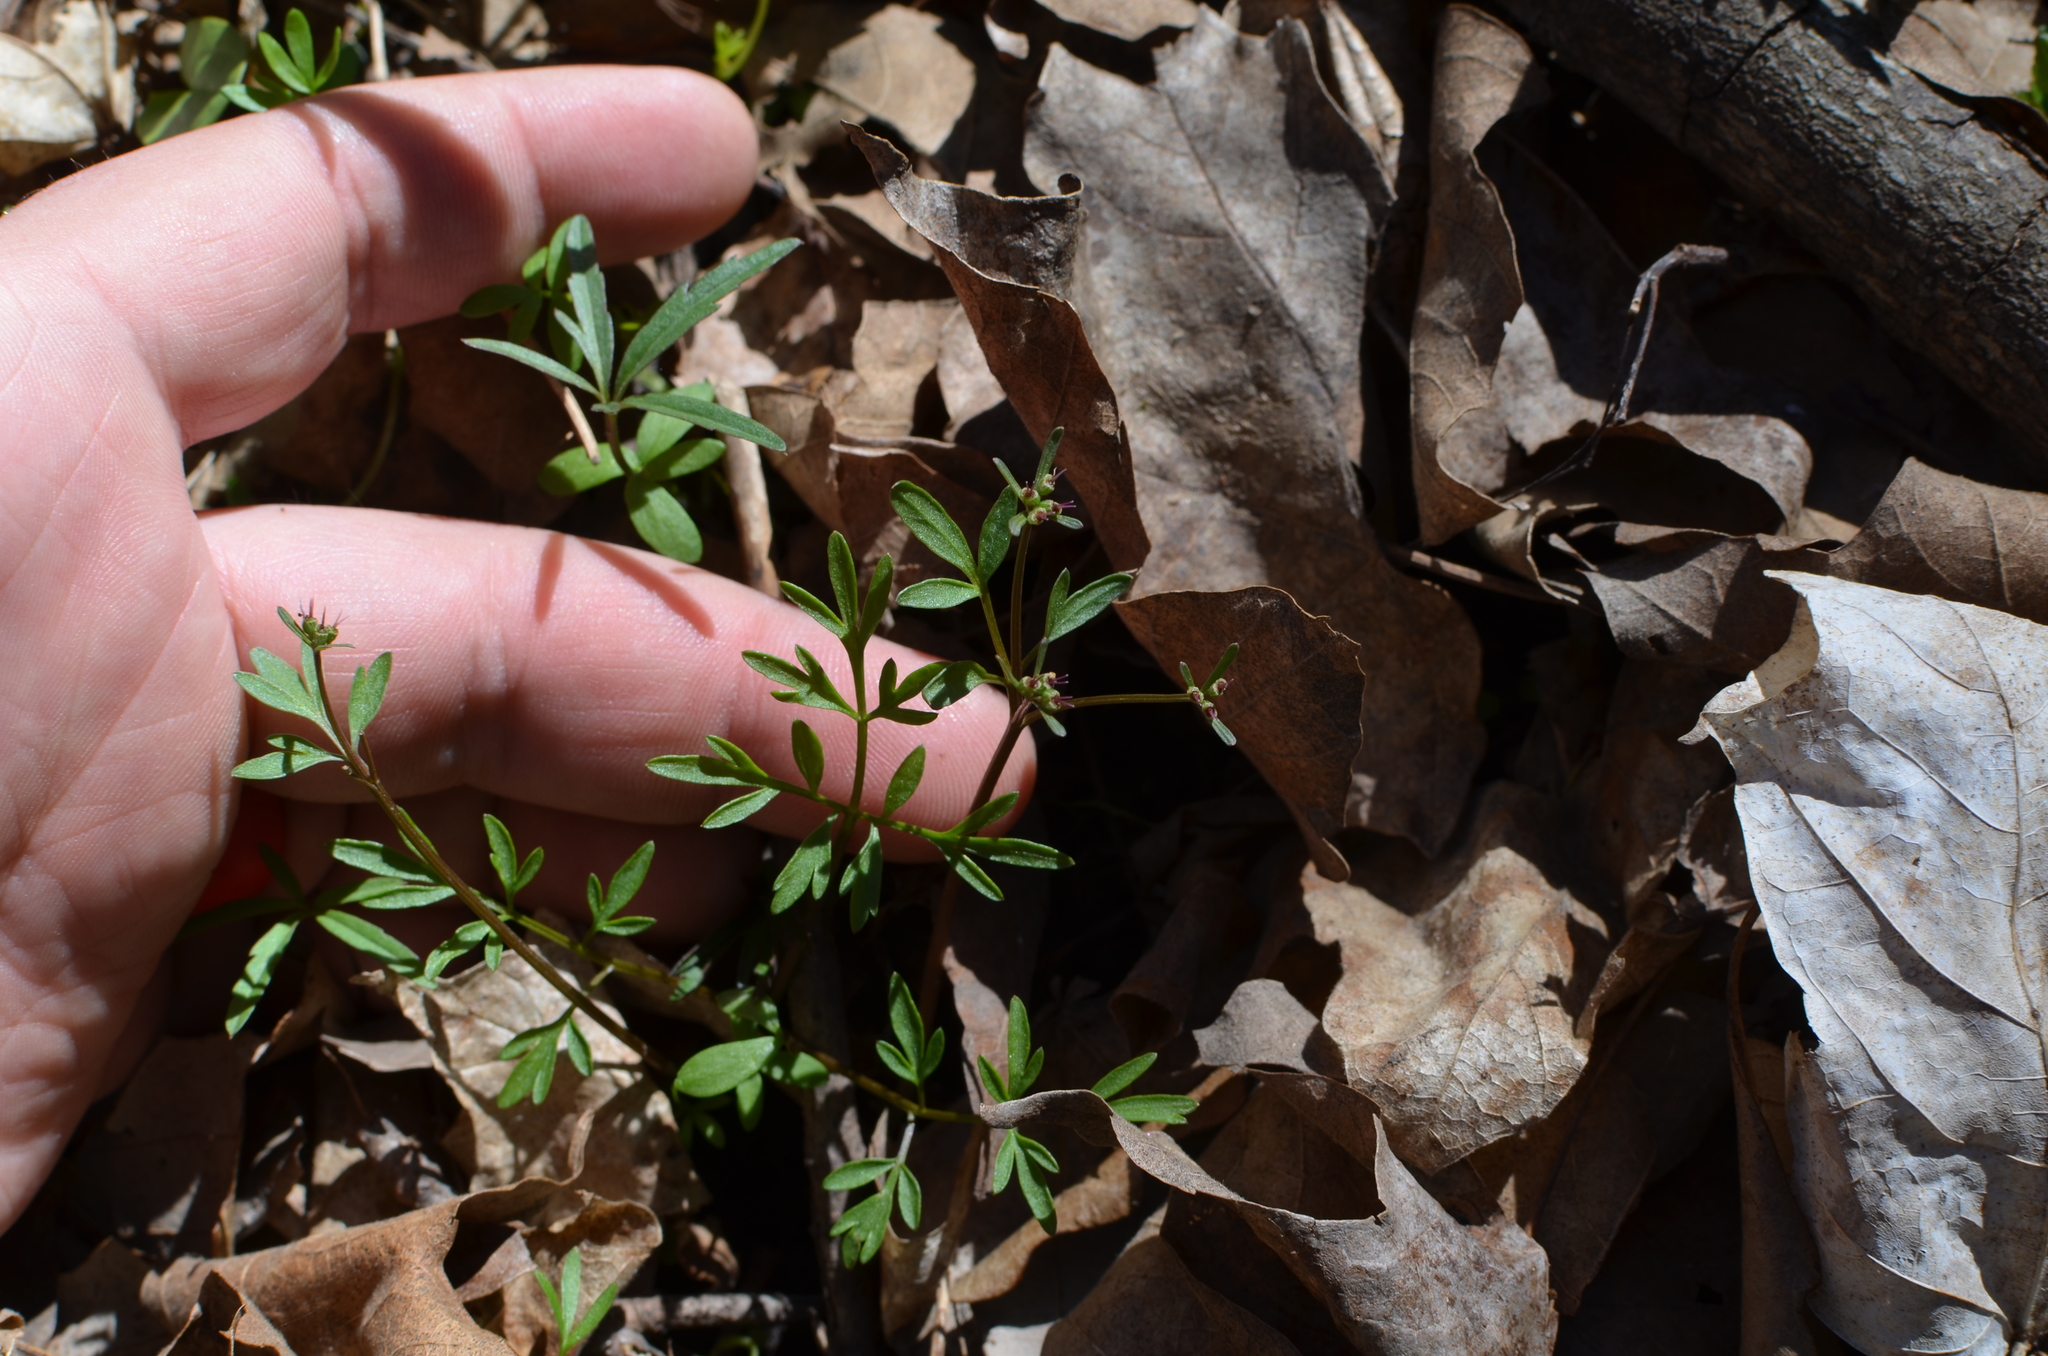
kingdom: Plantae
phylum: Tracheophyta
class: Magnoliopsida
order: Apiales
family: Apiaceae
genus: Erigenia
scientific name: Erigenia bulbosa
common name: Pepper-and-salt
